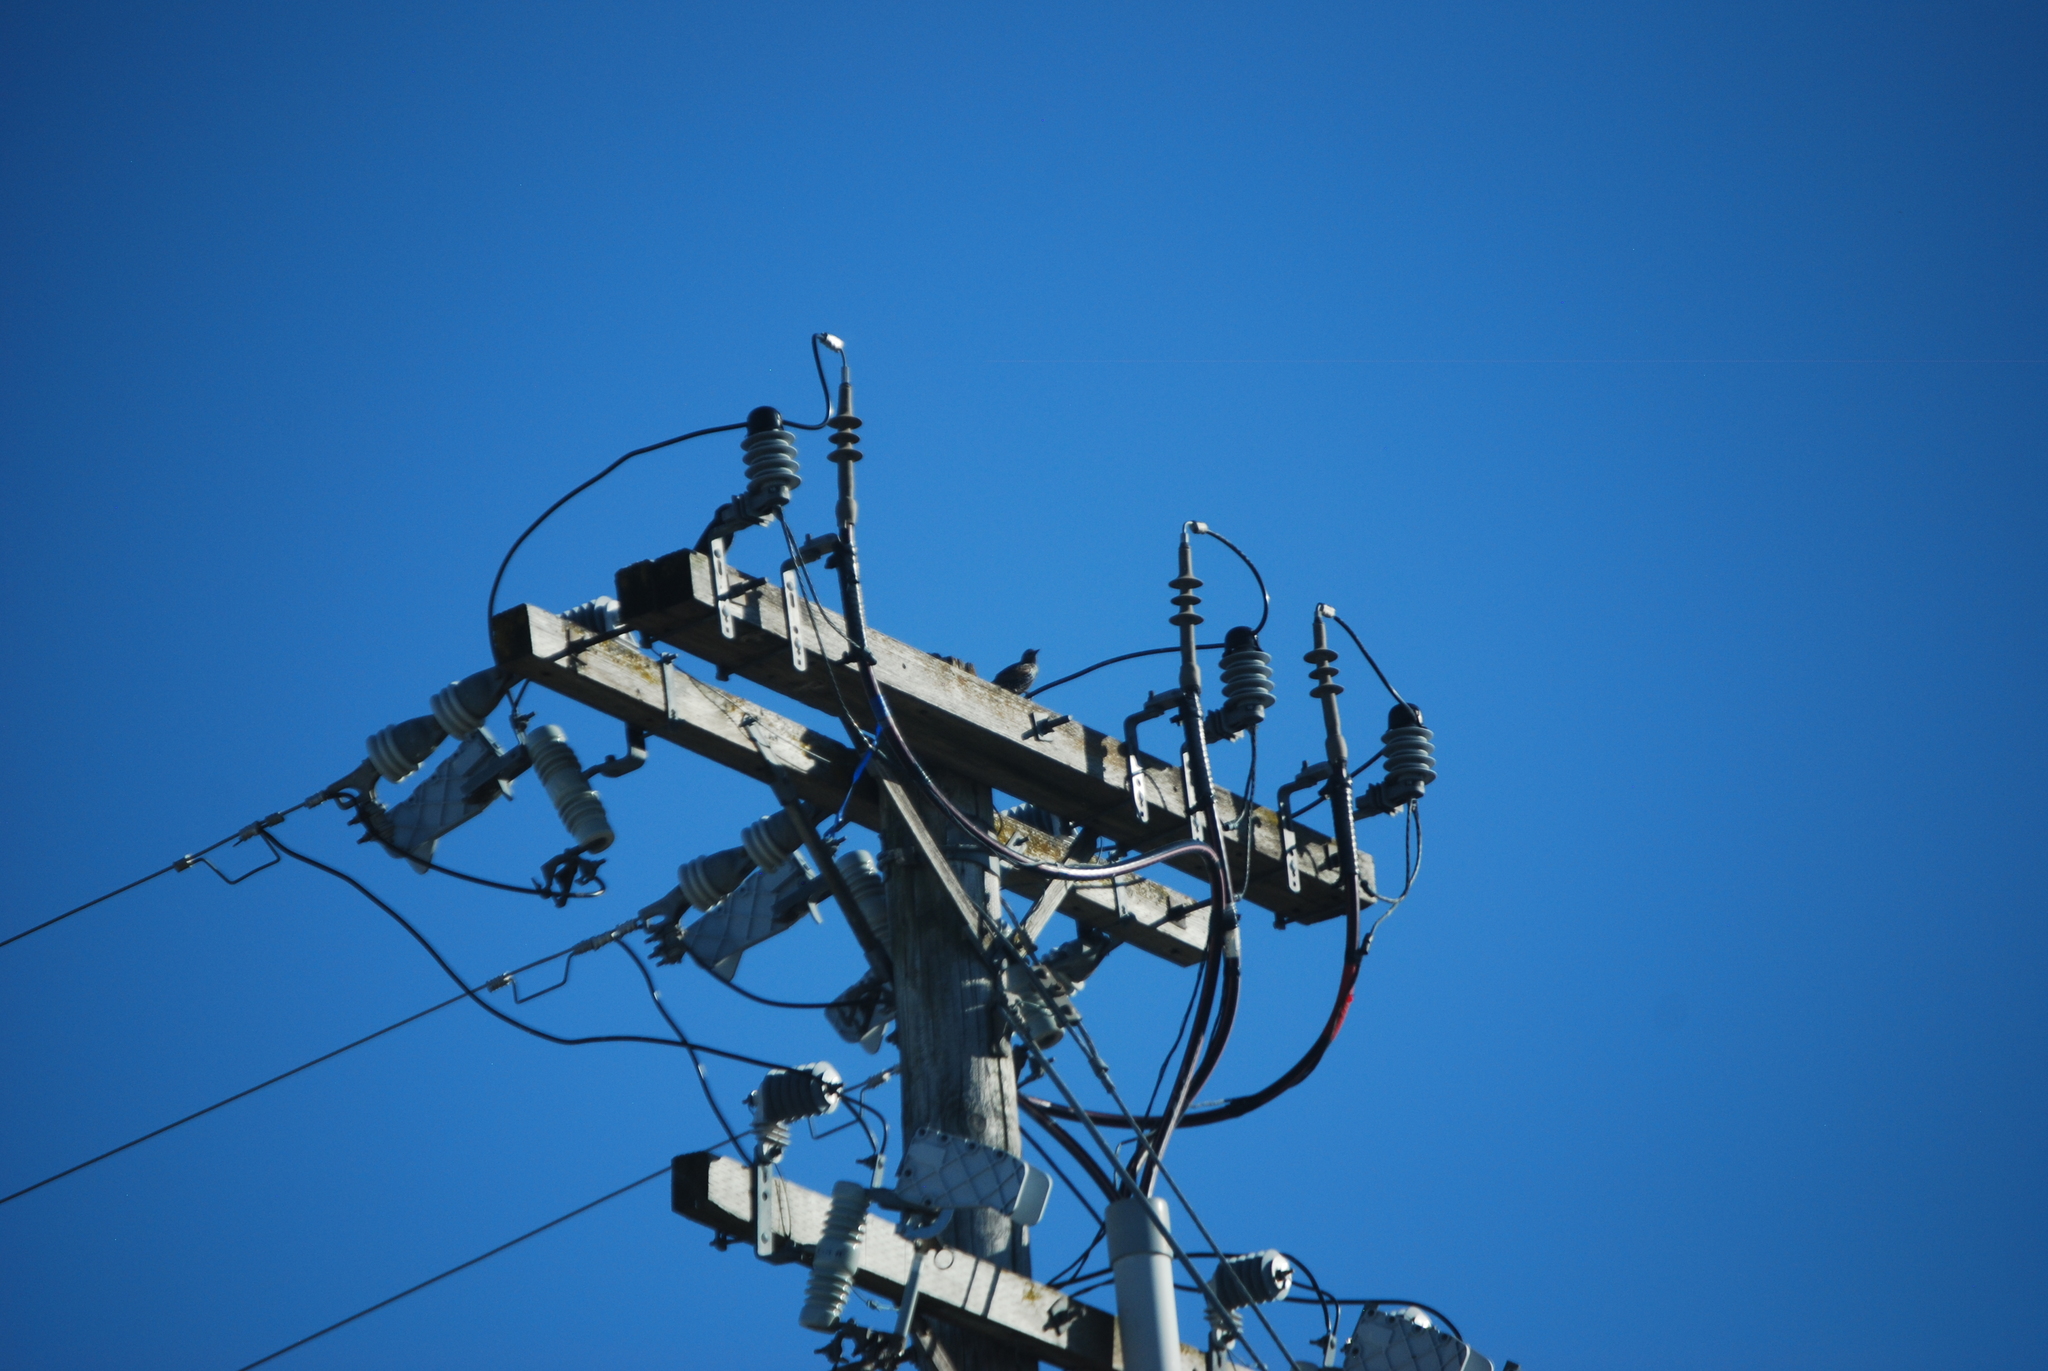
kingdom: Animalia
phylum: Chordata
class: Aves
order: Passeriformes
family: Sturnidae
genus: Sturnus
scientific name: Sturnus vulgaris
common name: Common starling
